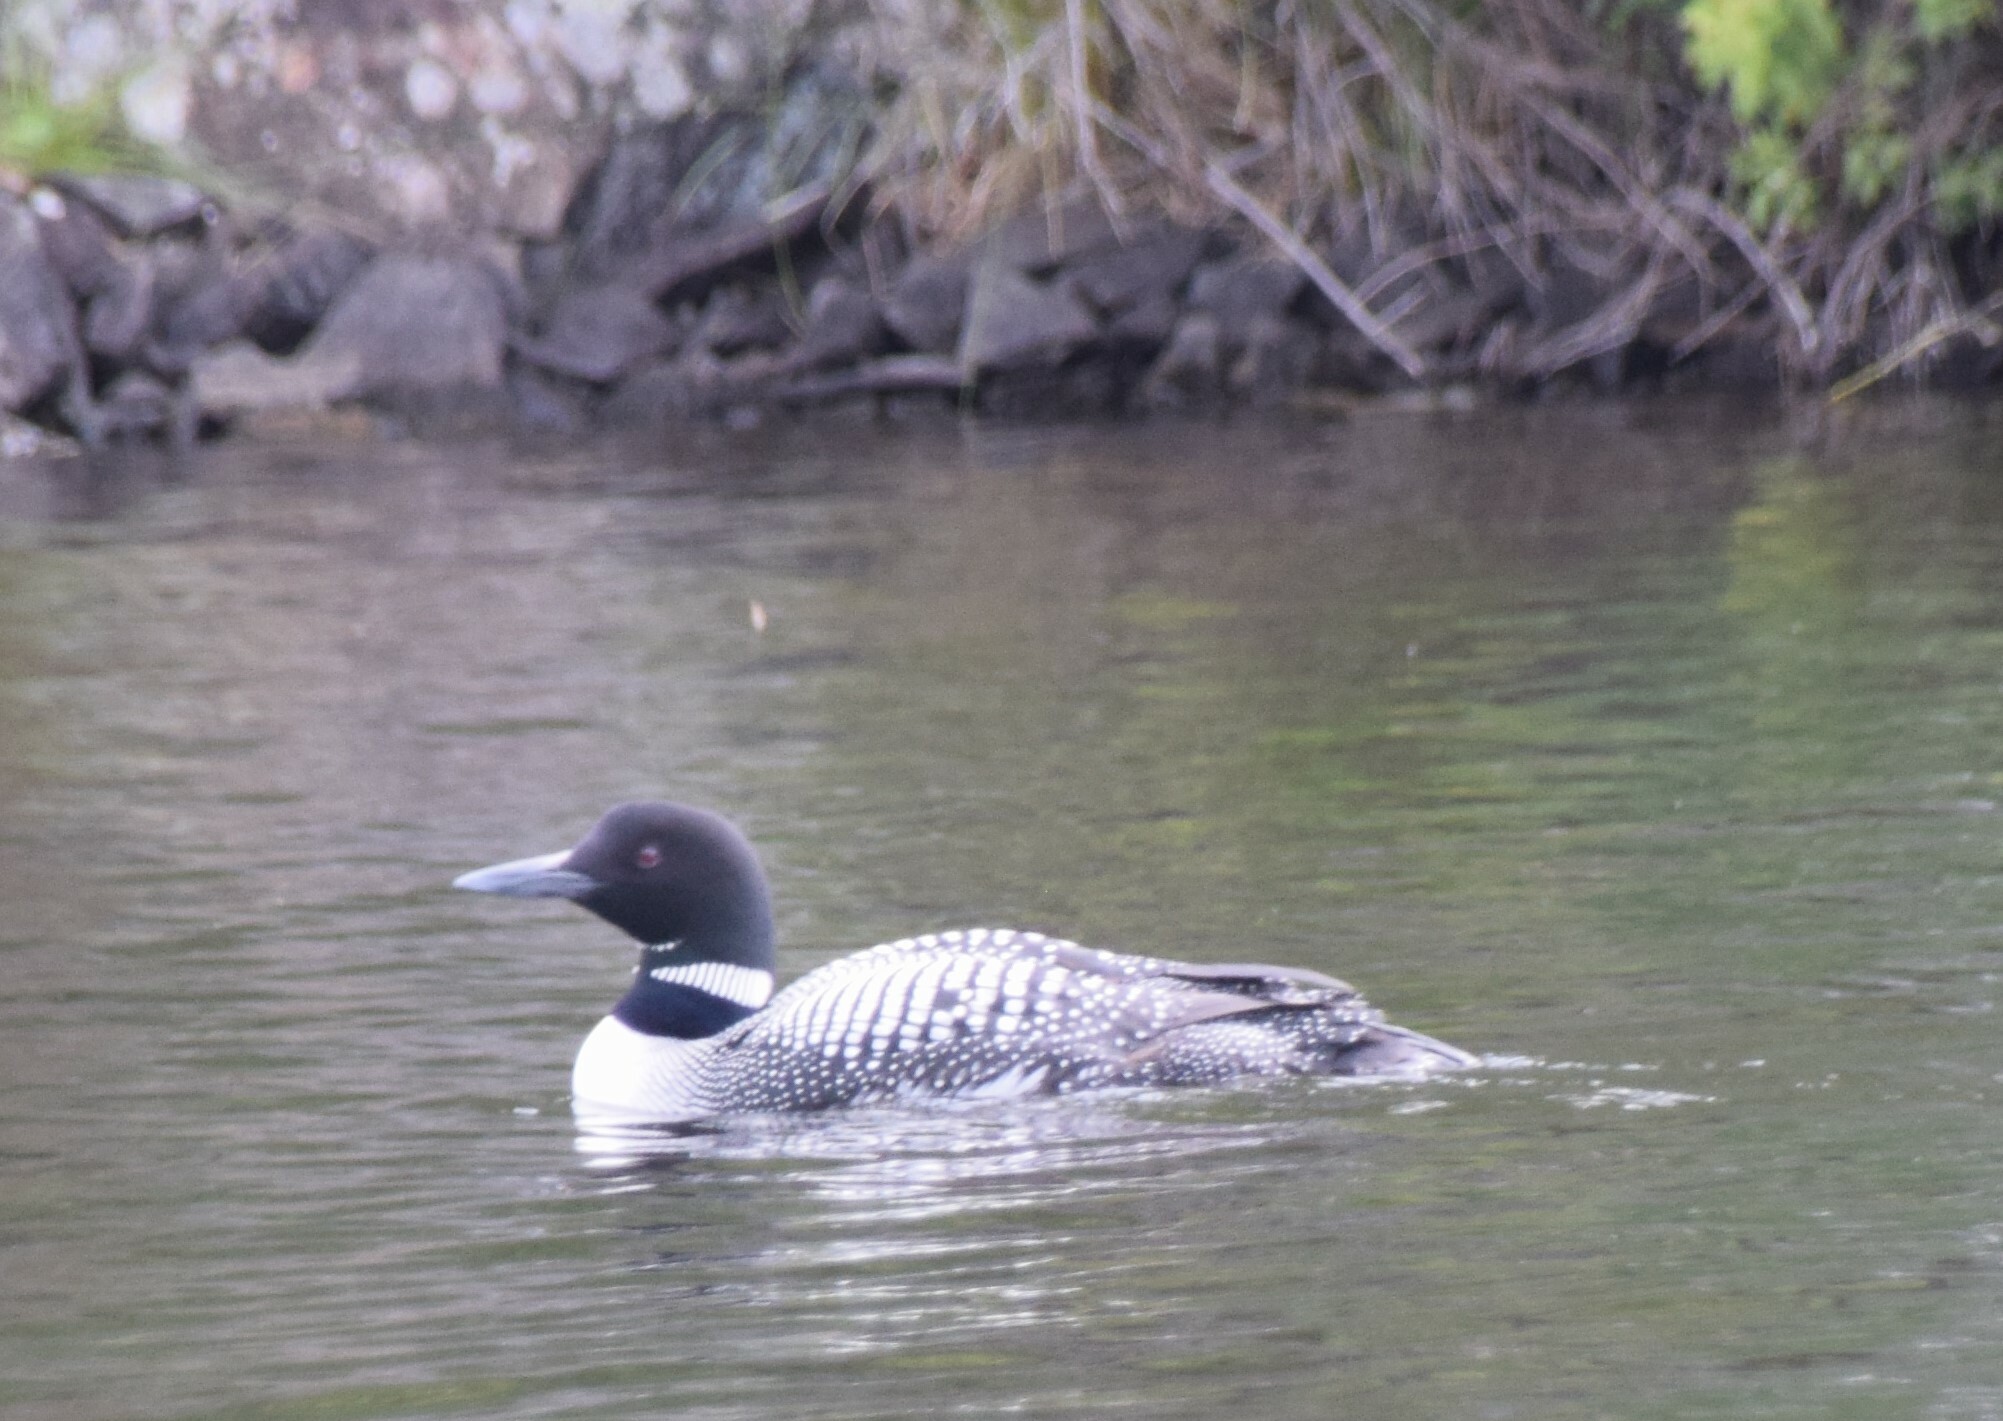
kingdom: Animalia
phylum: Chordata
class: Aves
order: Gaviiformes
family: Gaviidae
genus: Gavia
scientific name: Gavia immer
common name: Common loon
